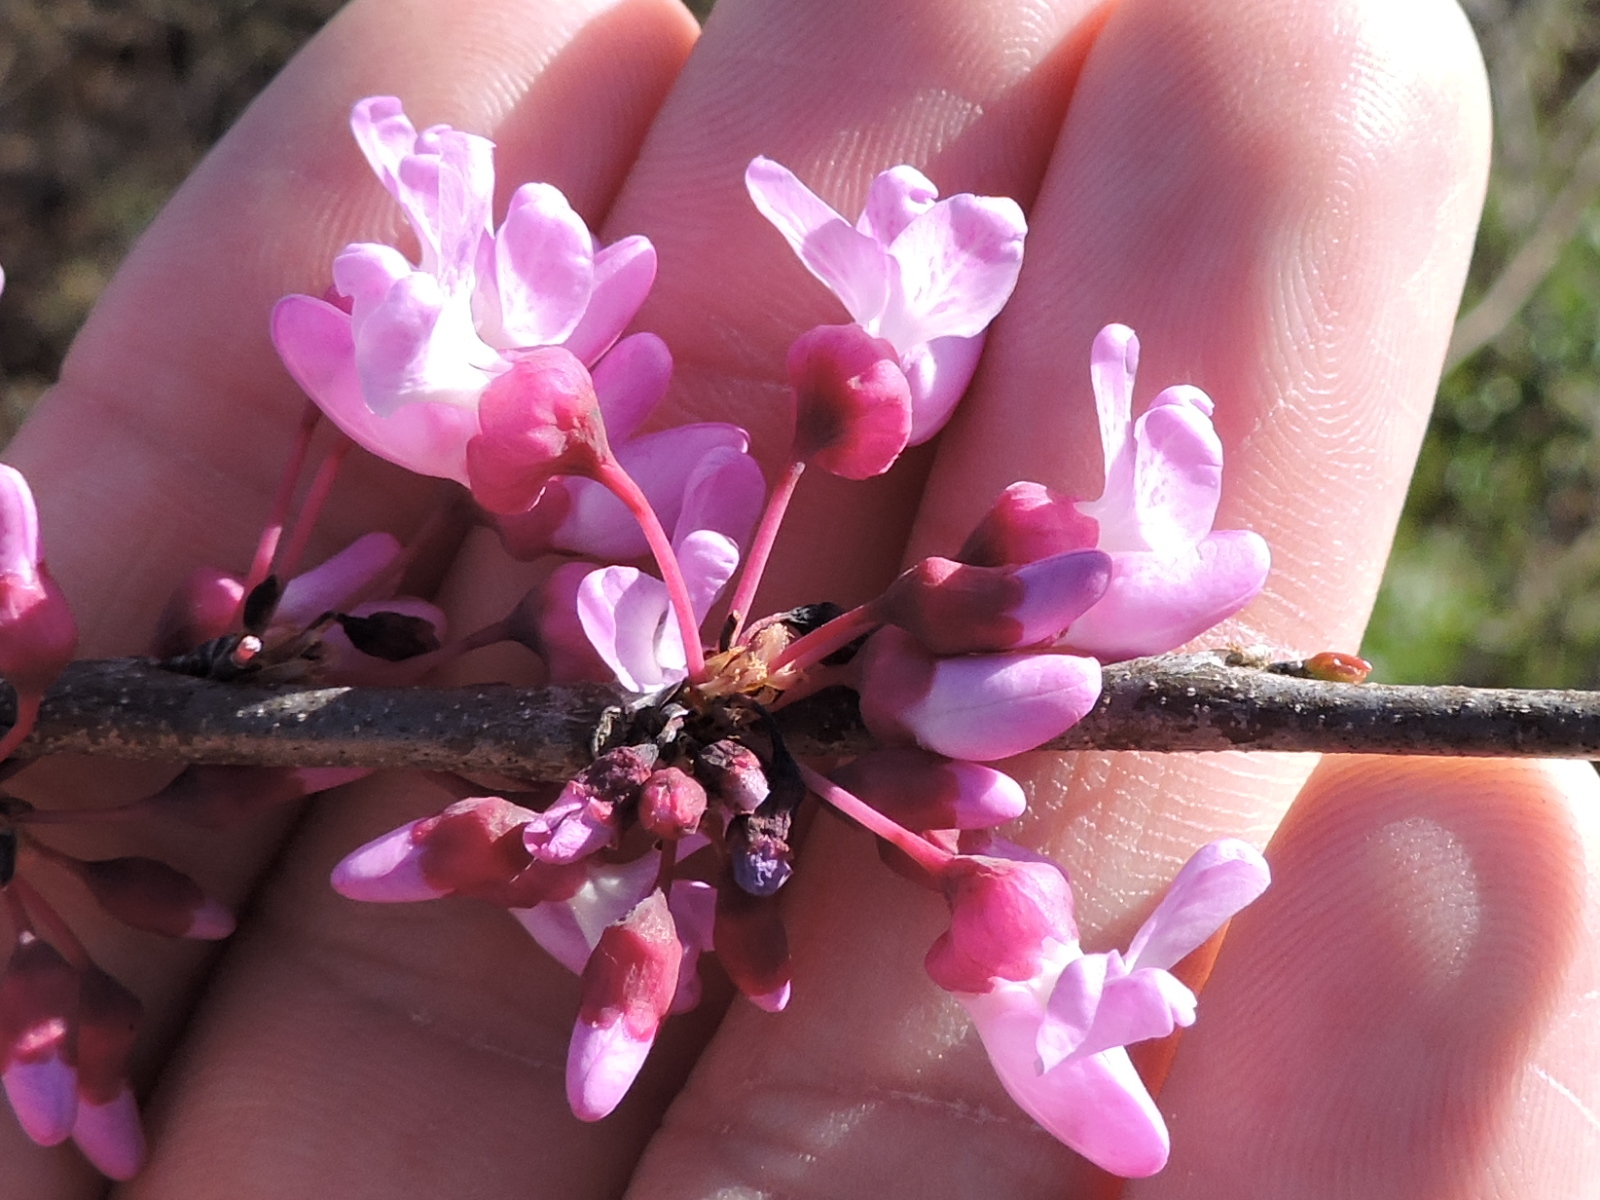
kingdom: Plantae
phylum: Tracheophyta
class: Magnoliopsida
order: Fabales
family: Fabaceae
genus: Cercis
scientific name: Cercis canadensis
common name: Eastern redbud
